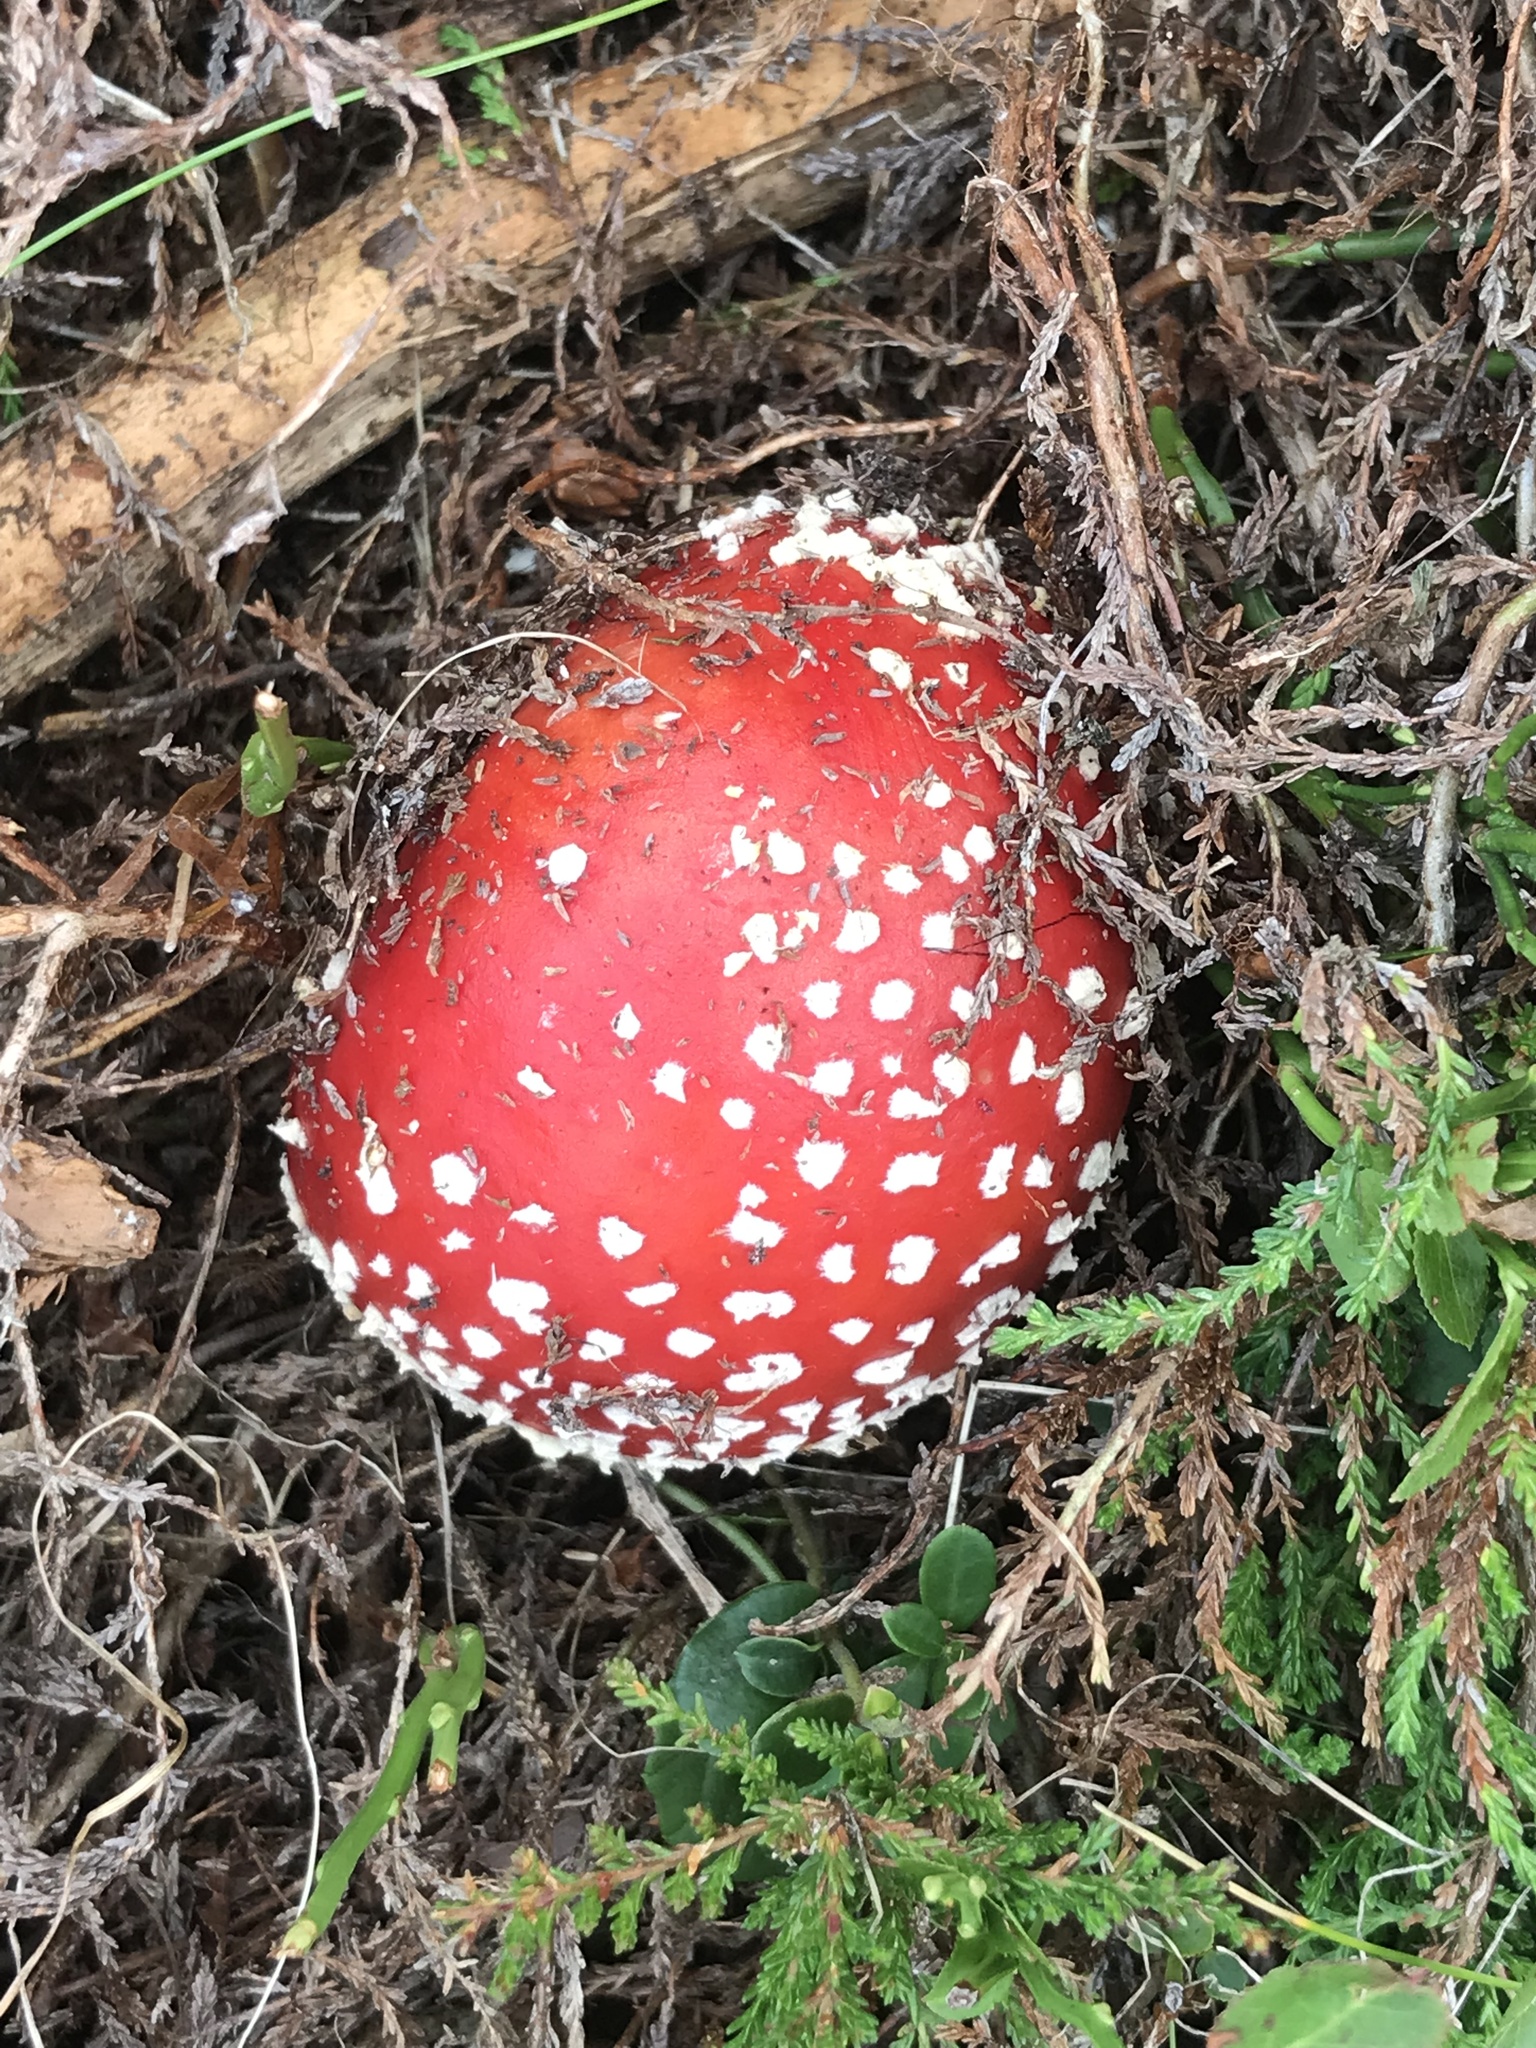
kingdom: Fungi
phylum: Basidiomycota
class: Agaricomycetes
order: Agaricales
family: Amanitaceae
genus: Amanita
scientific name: Amanita muscaria
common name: Fly agaric
